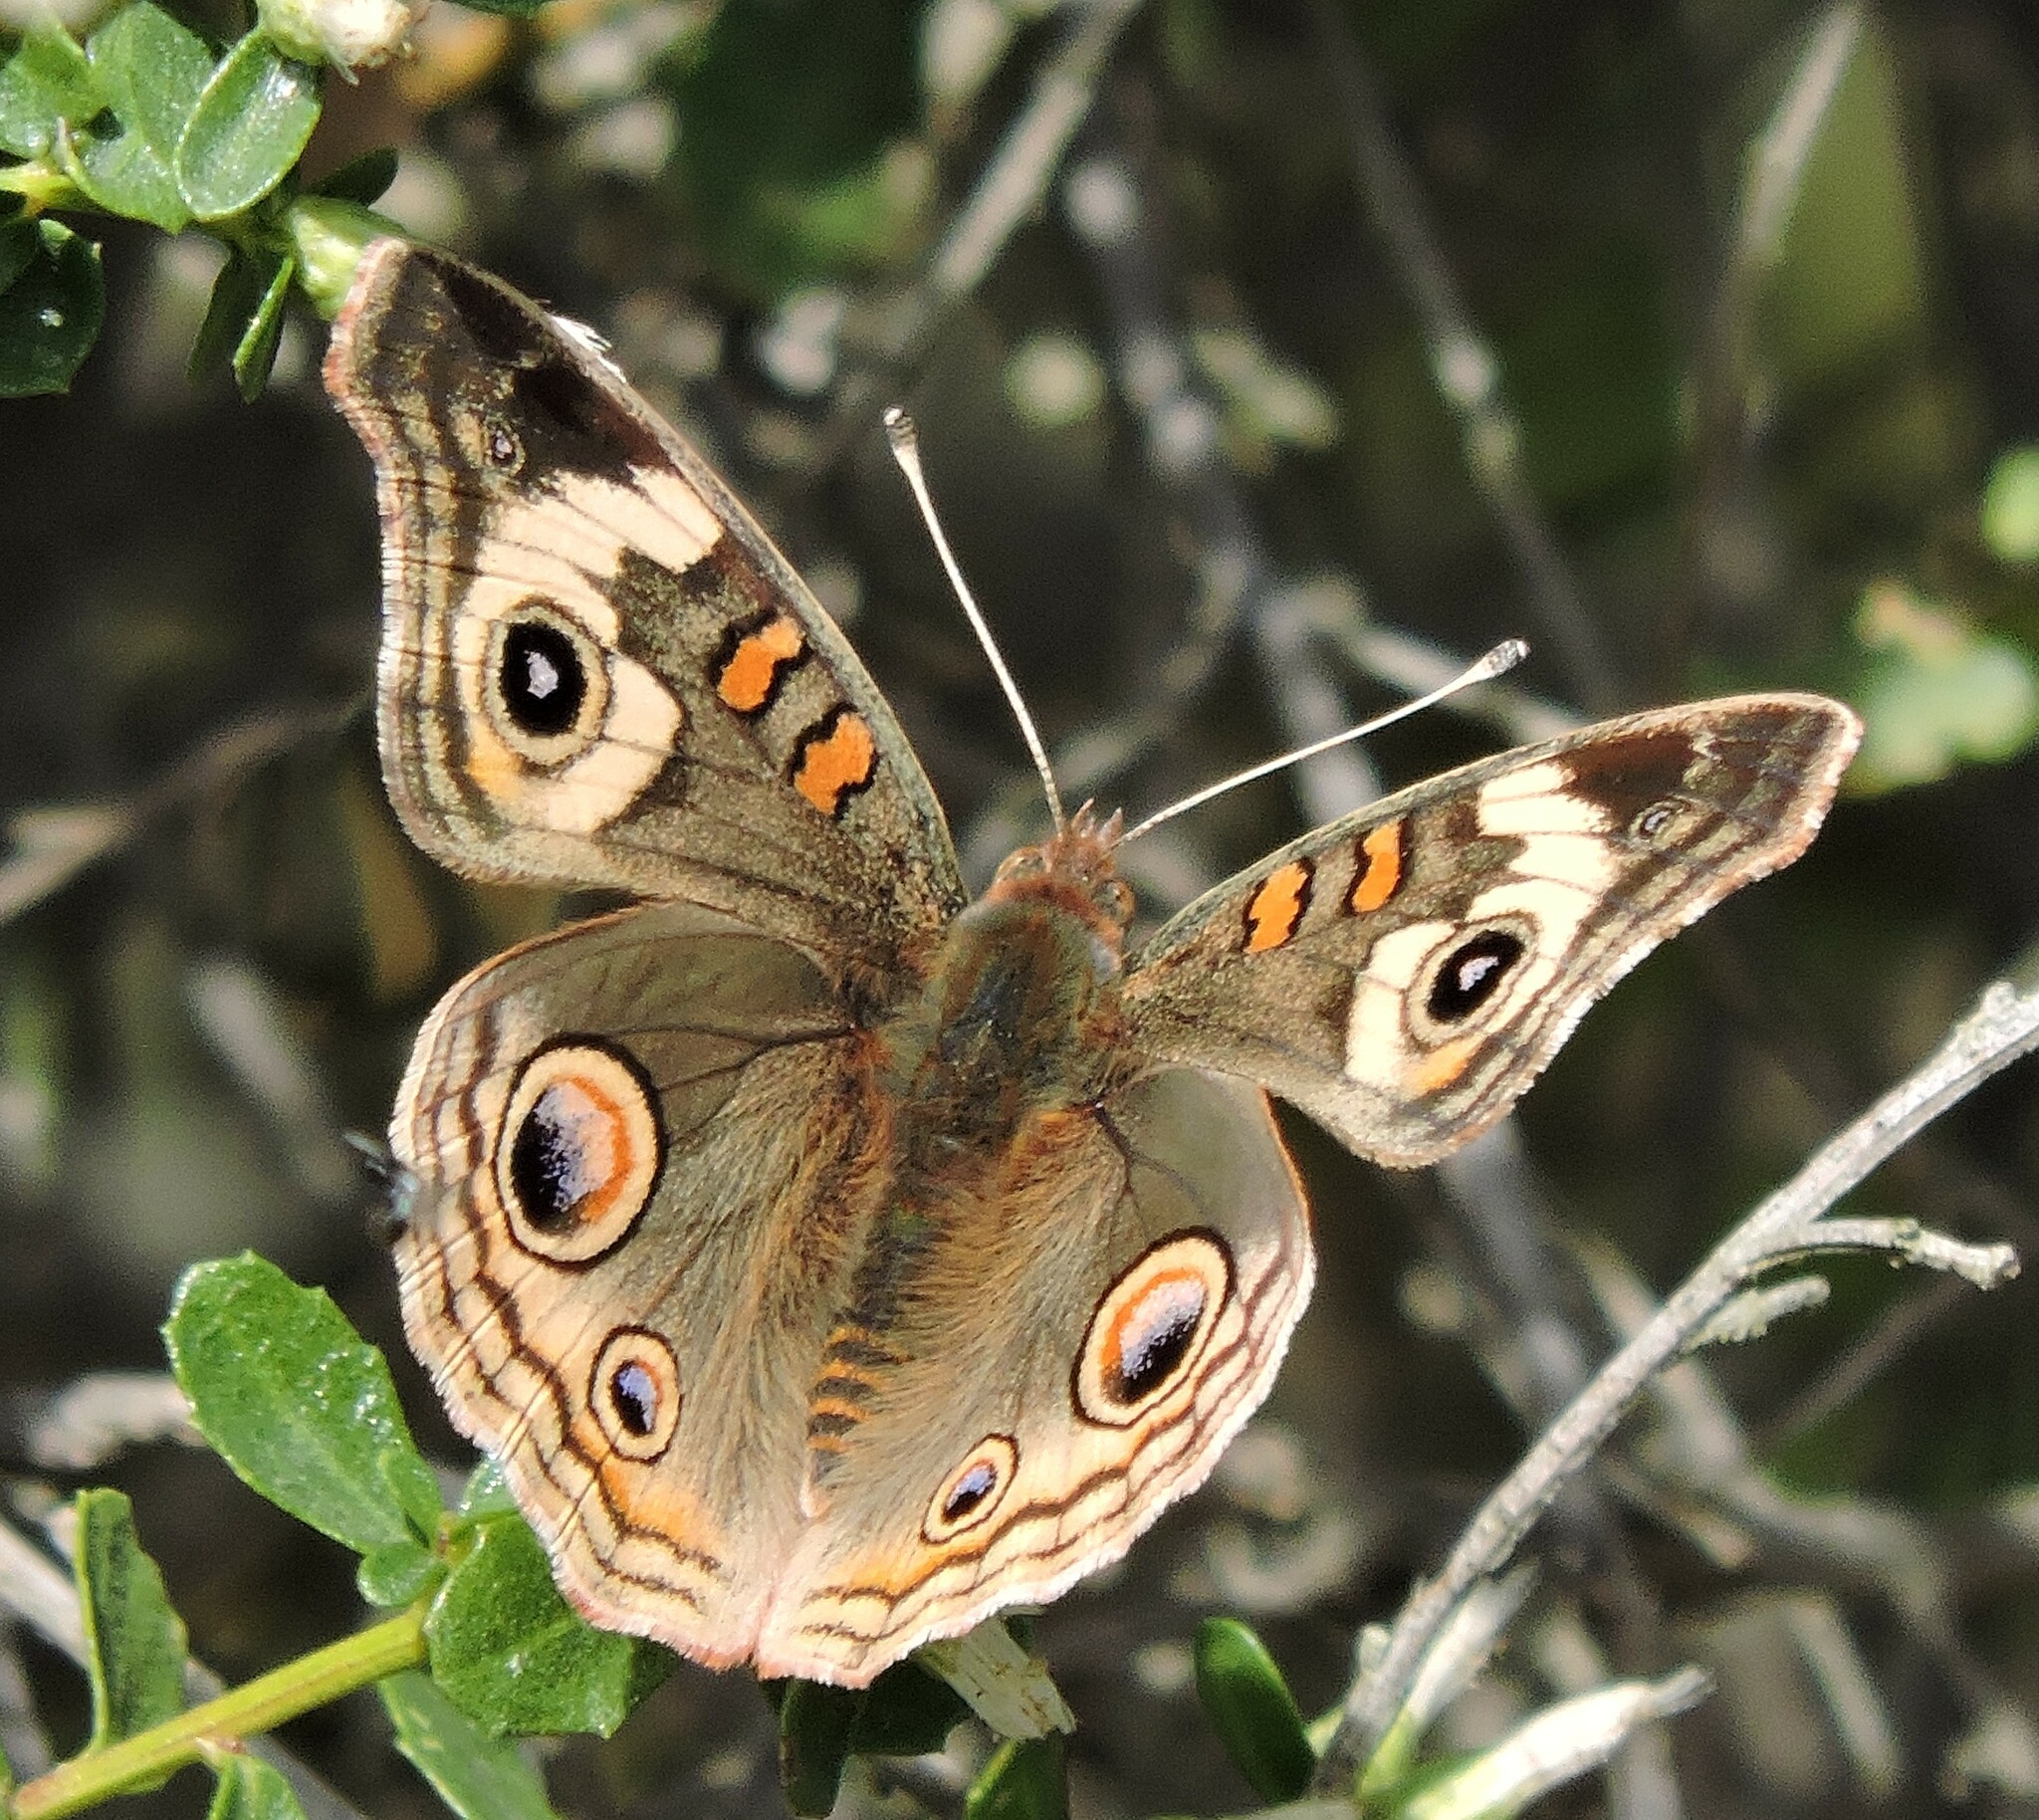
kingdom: Animalia
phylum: Arthropoda
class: Insecta
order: Lepidoptera
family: Nymphalidae
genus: Junonia
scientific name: Junonia grisea
